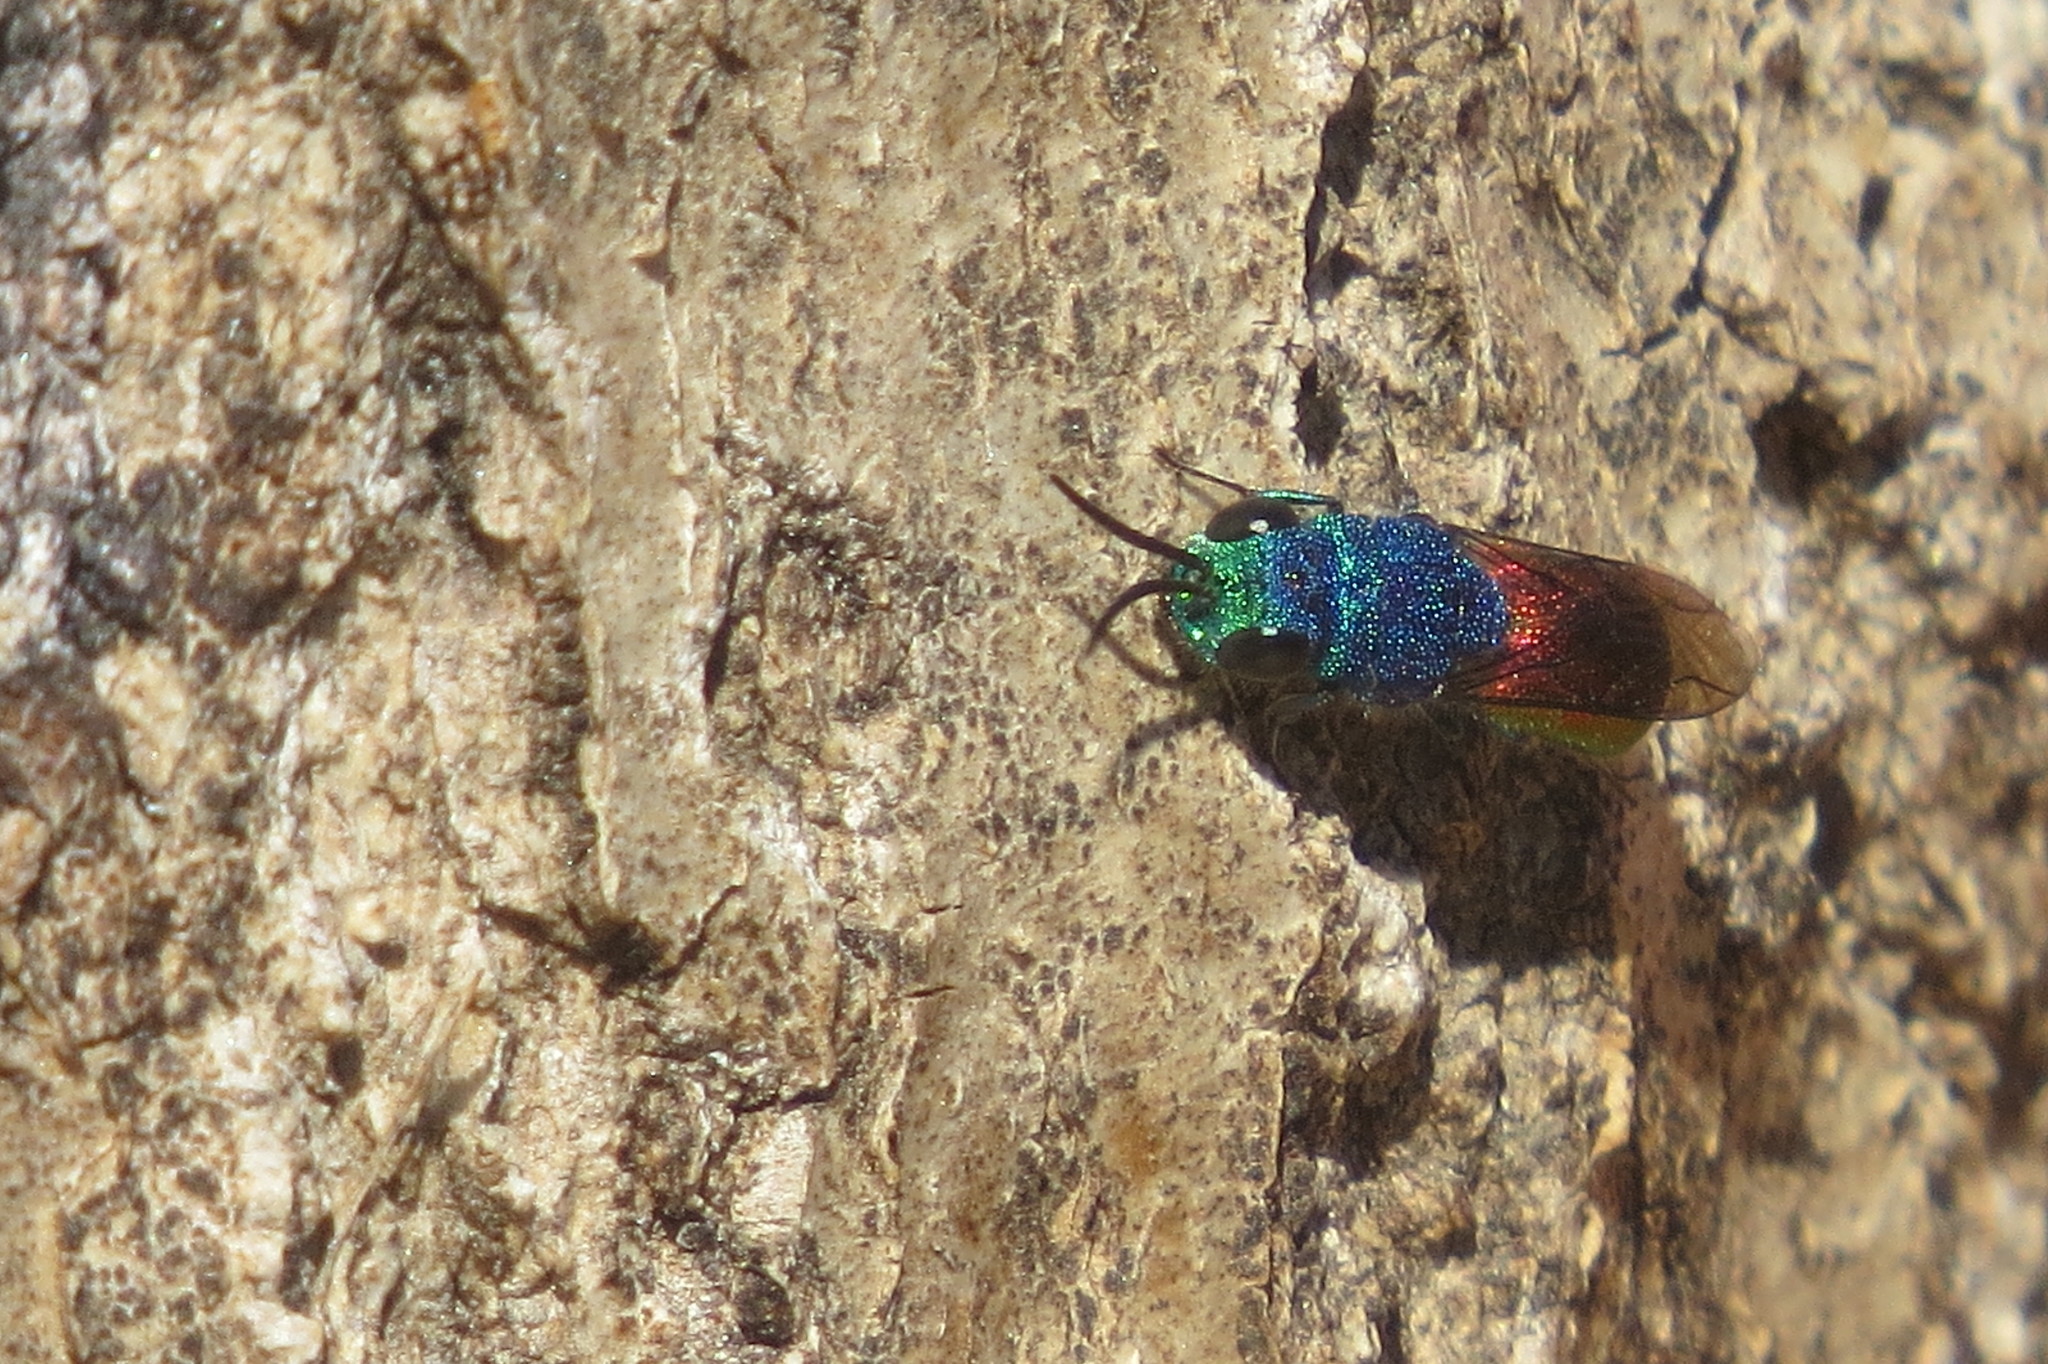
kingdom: Animalia
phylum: Arthropoda
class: Insecta
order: Hymenoptera
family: Chrysididae
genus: Chrysis
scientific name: Chrysis terminata
